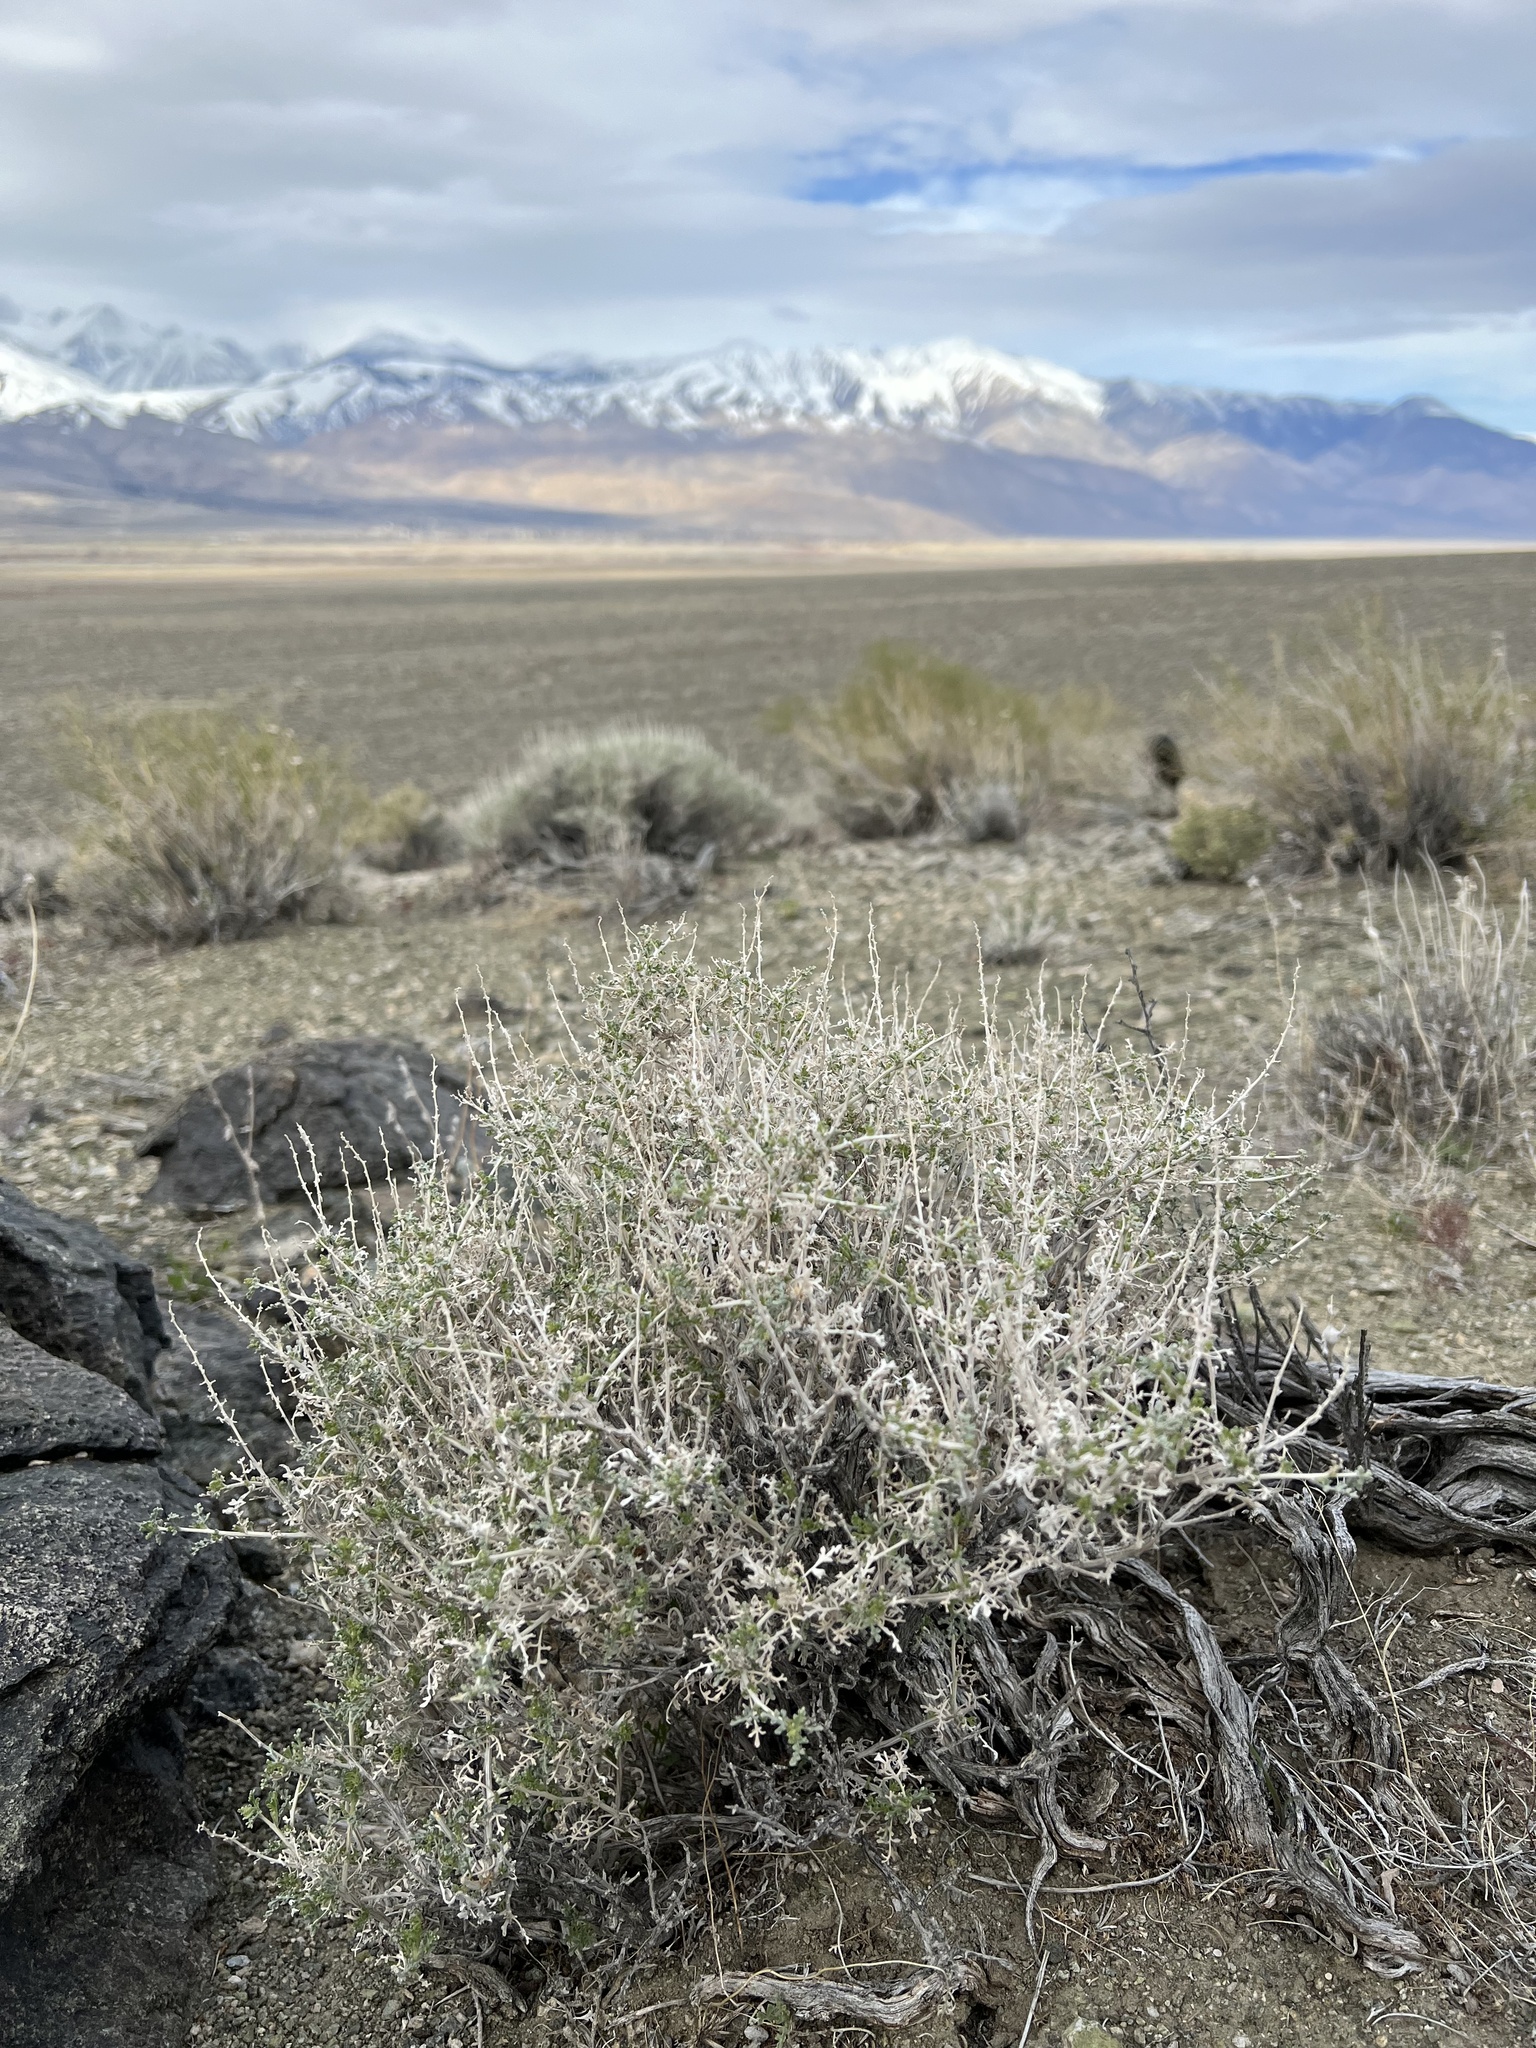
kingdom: Plantae
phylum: Tracheophyta
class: Magnoliopsida
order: Asterales
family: Asteraceae
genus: Ambrosia
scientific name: Ambrosia dumosa
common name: Bur-sage
